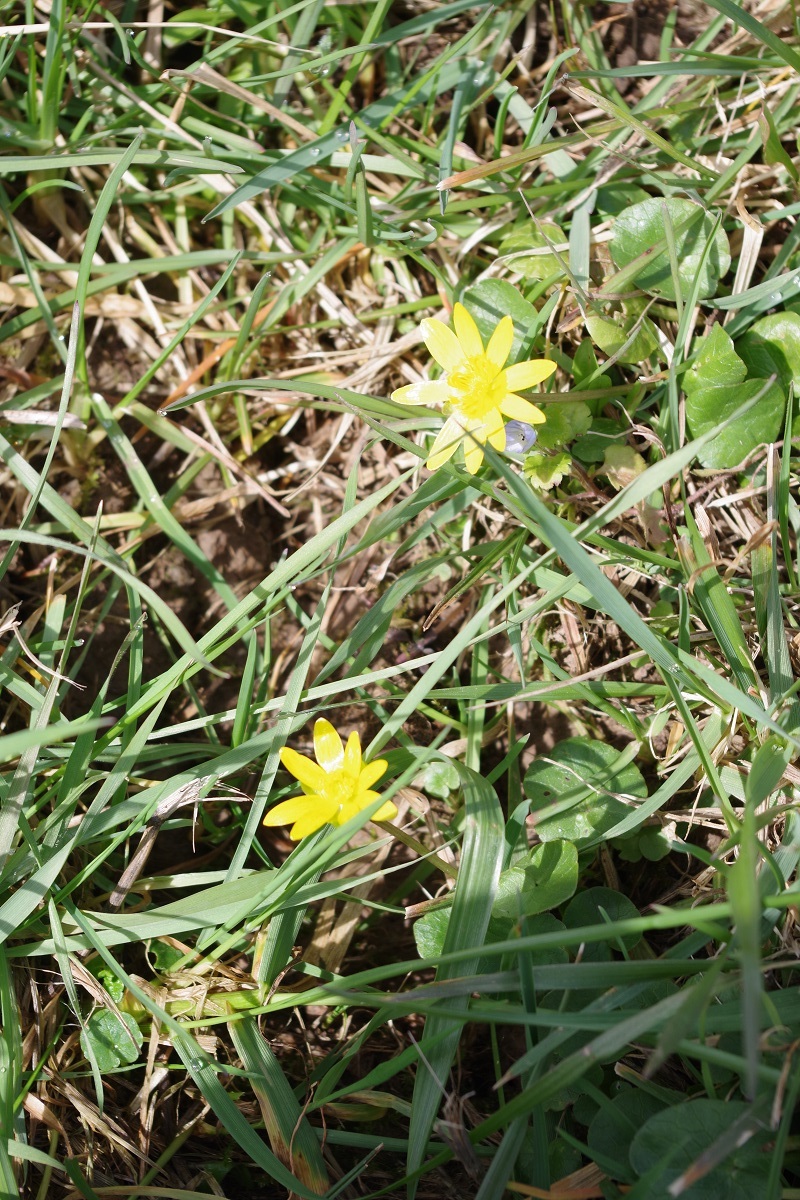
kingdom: Plantae
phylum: Tracheophyta
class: Magnoliopsida
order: Ranunculales
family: Ranunculaceae
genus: Ficaria
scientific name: Ficaria verna
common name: Lesser celandine
